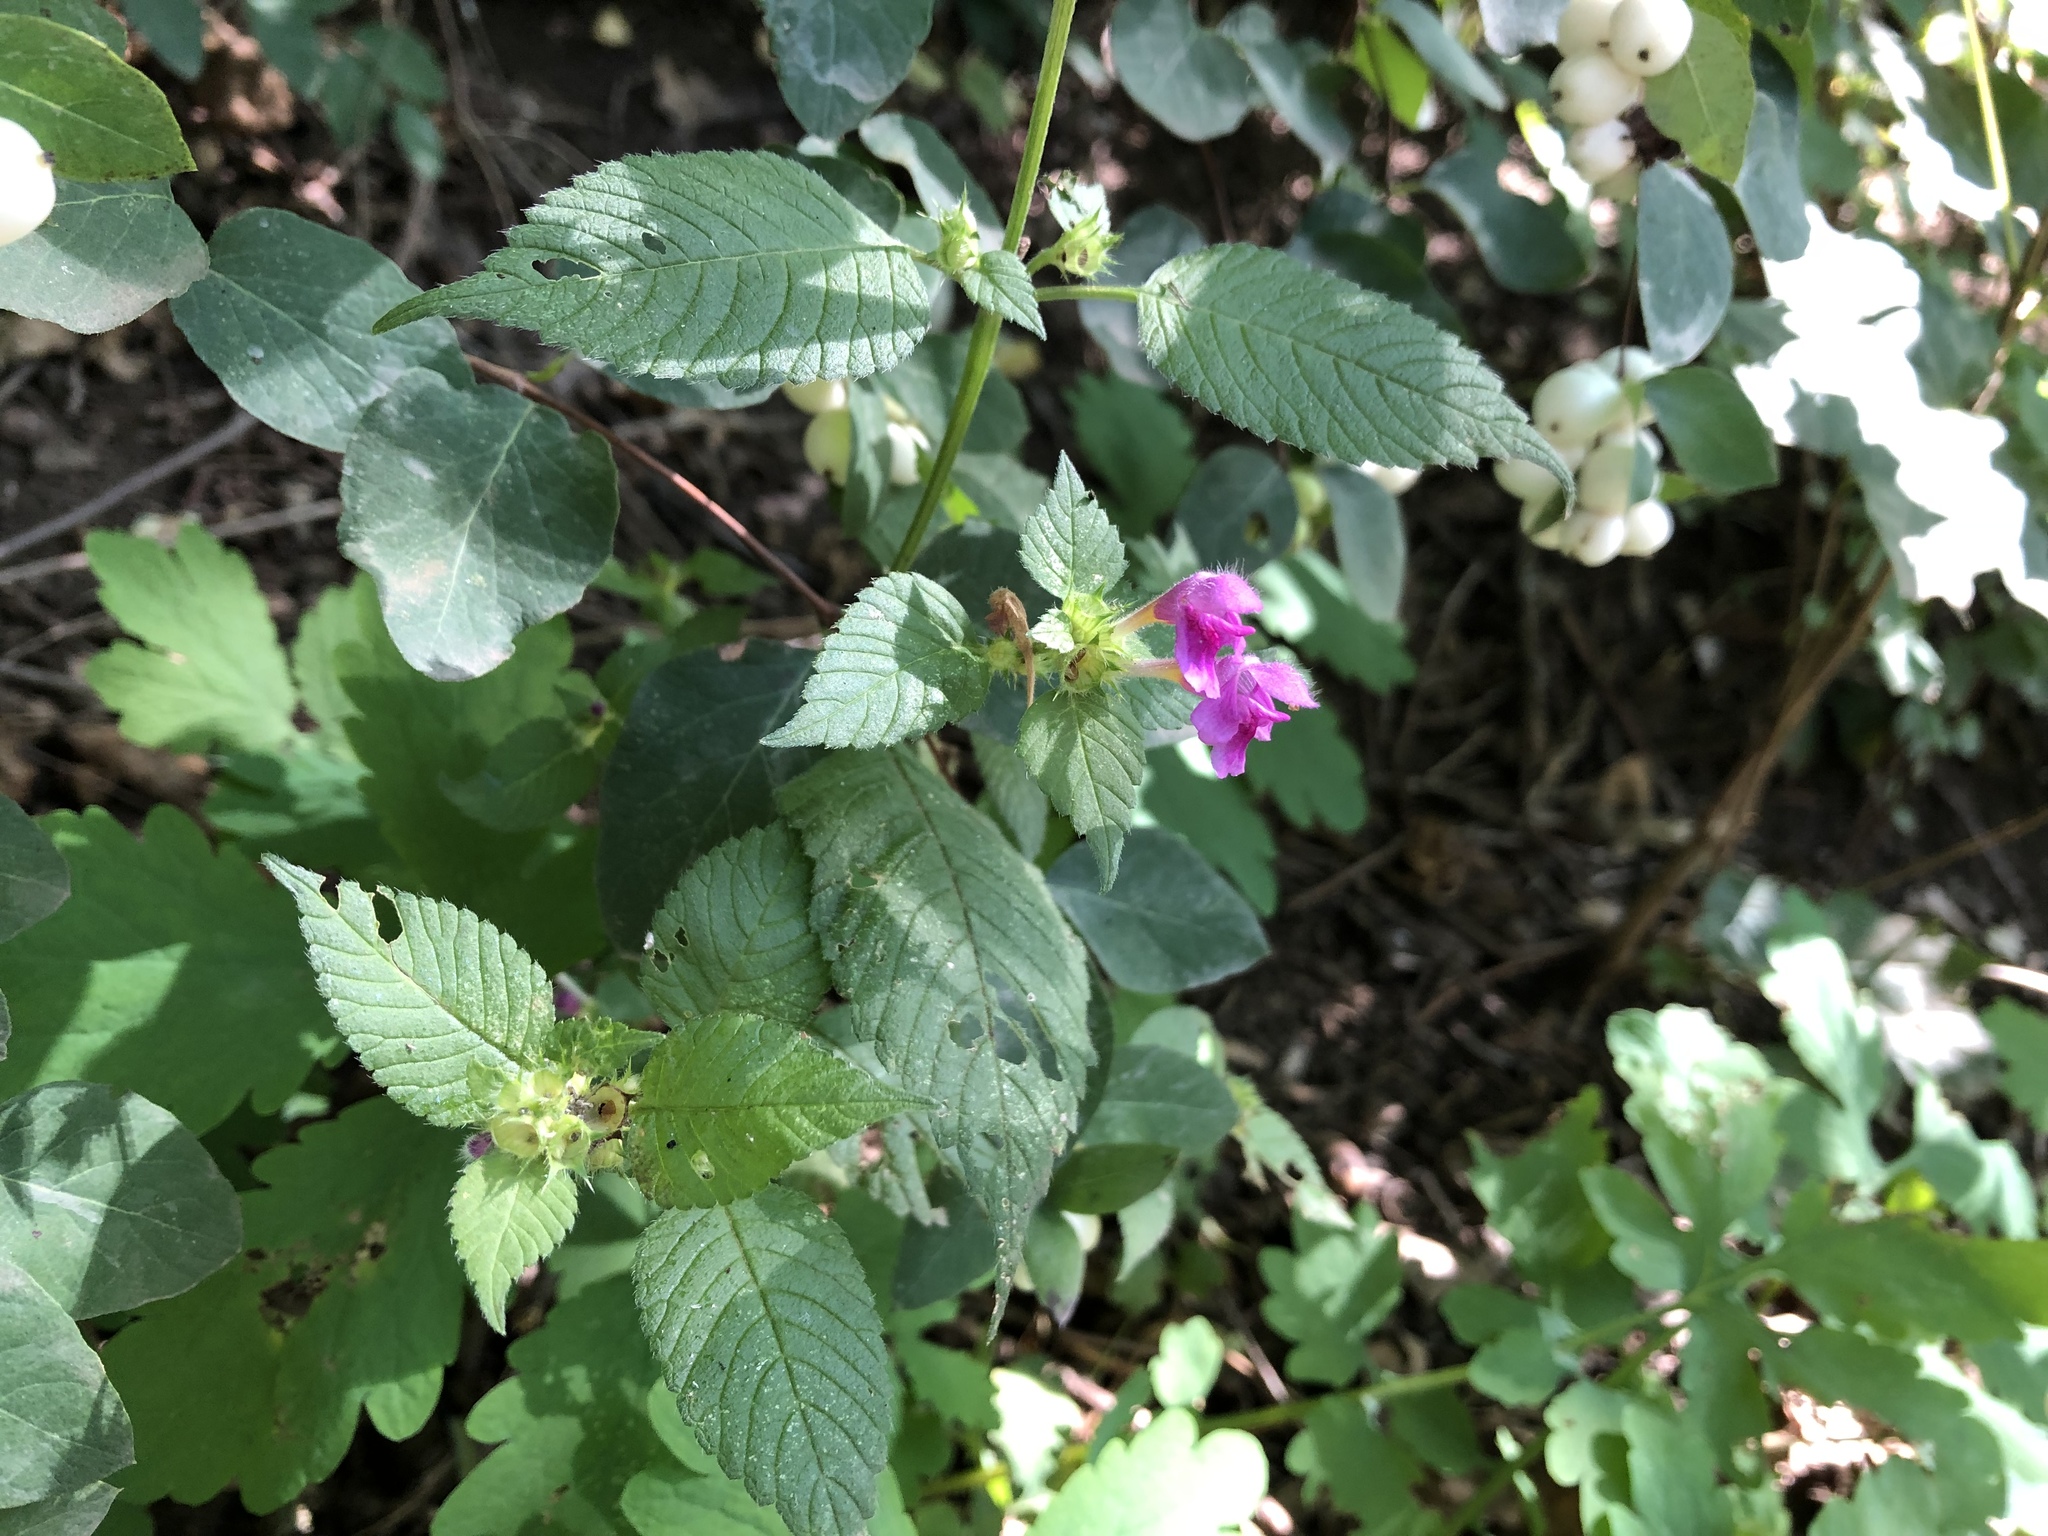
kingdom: Plantae
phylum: Tracheophyta
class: Magnoliopsida
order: Lamiales
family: Lamiaceae
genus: Galeopsis
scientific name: Galeopsis pubescens
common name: Downy hemp-nettle
